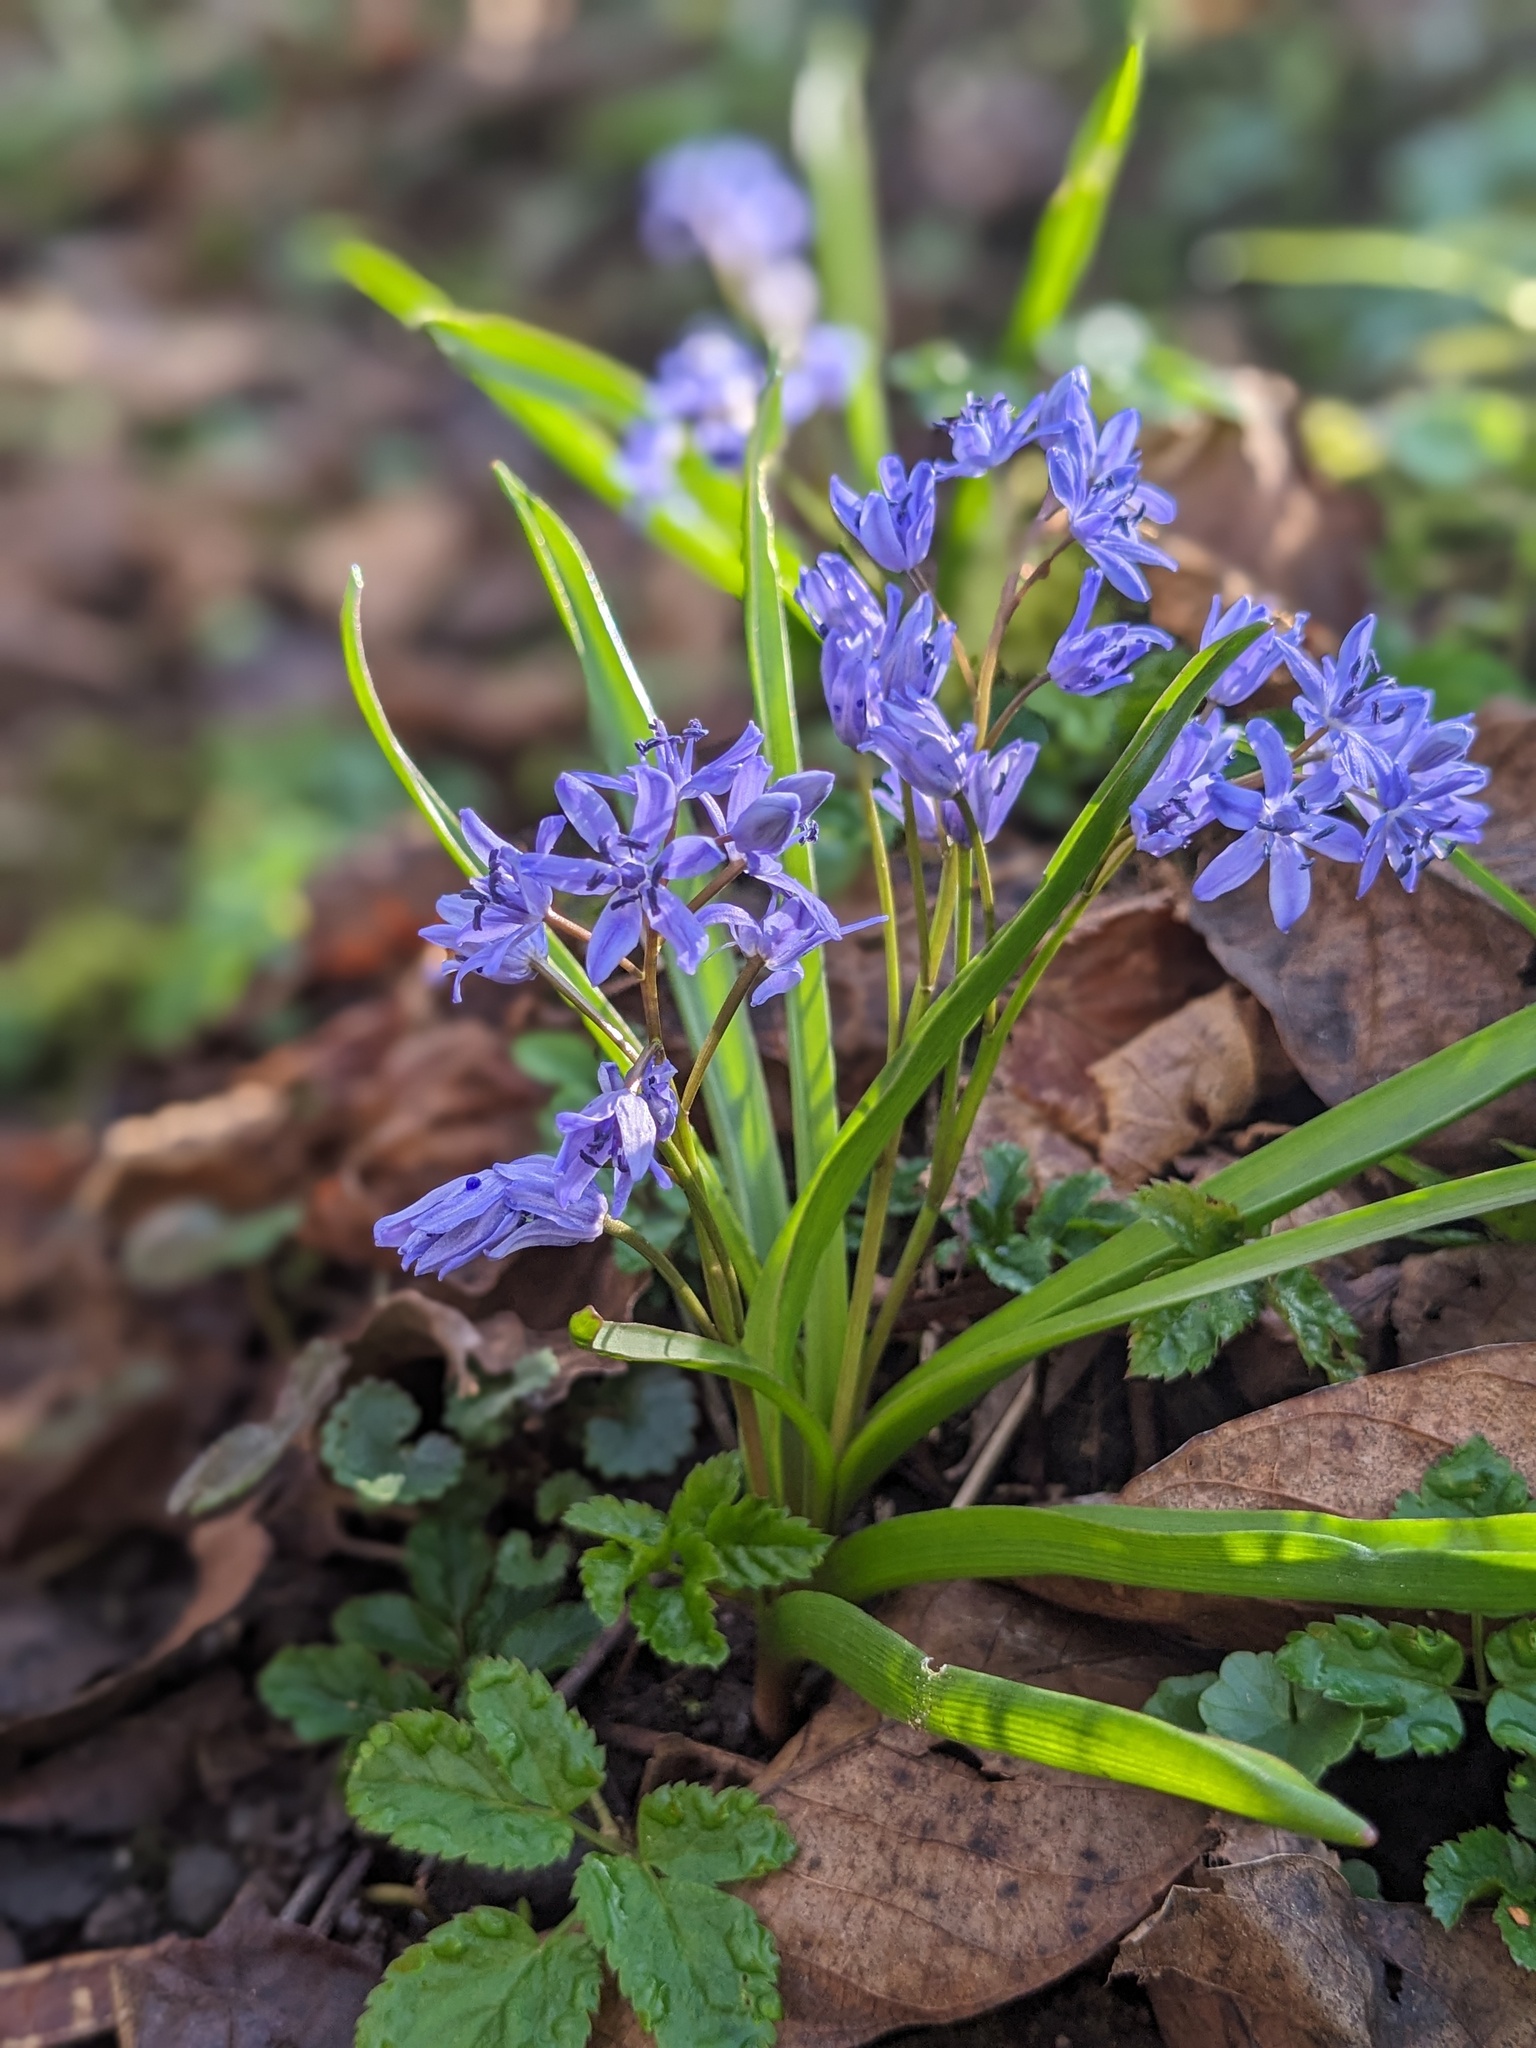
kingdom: Plantae
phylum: Tracheophyta
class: Liliopsida
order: Asparagales
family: Asparagaceae
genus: Scilla
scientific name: Scilla bifolia
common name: Alpine squill
